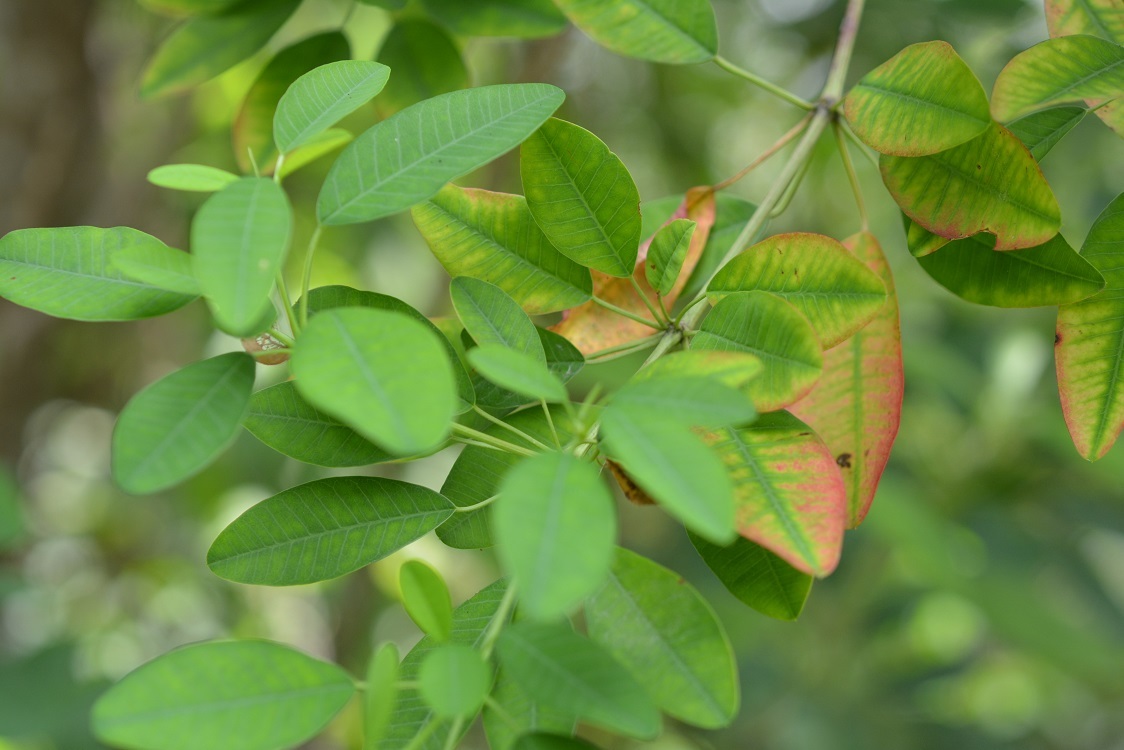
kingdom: Plantae
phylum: Tracheophyta
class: Magnoliopsida
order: Malpighiales
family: Euphorbiaceae
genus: Euphorbia
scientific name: Euphorbia leucocephala
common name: Pascuita
